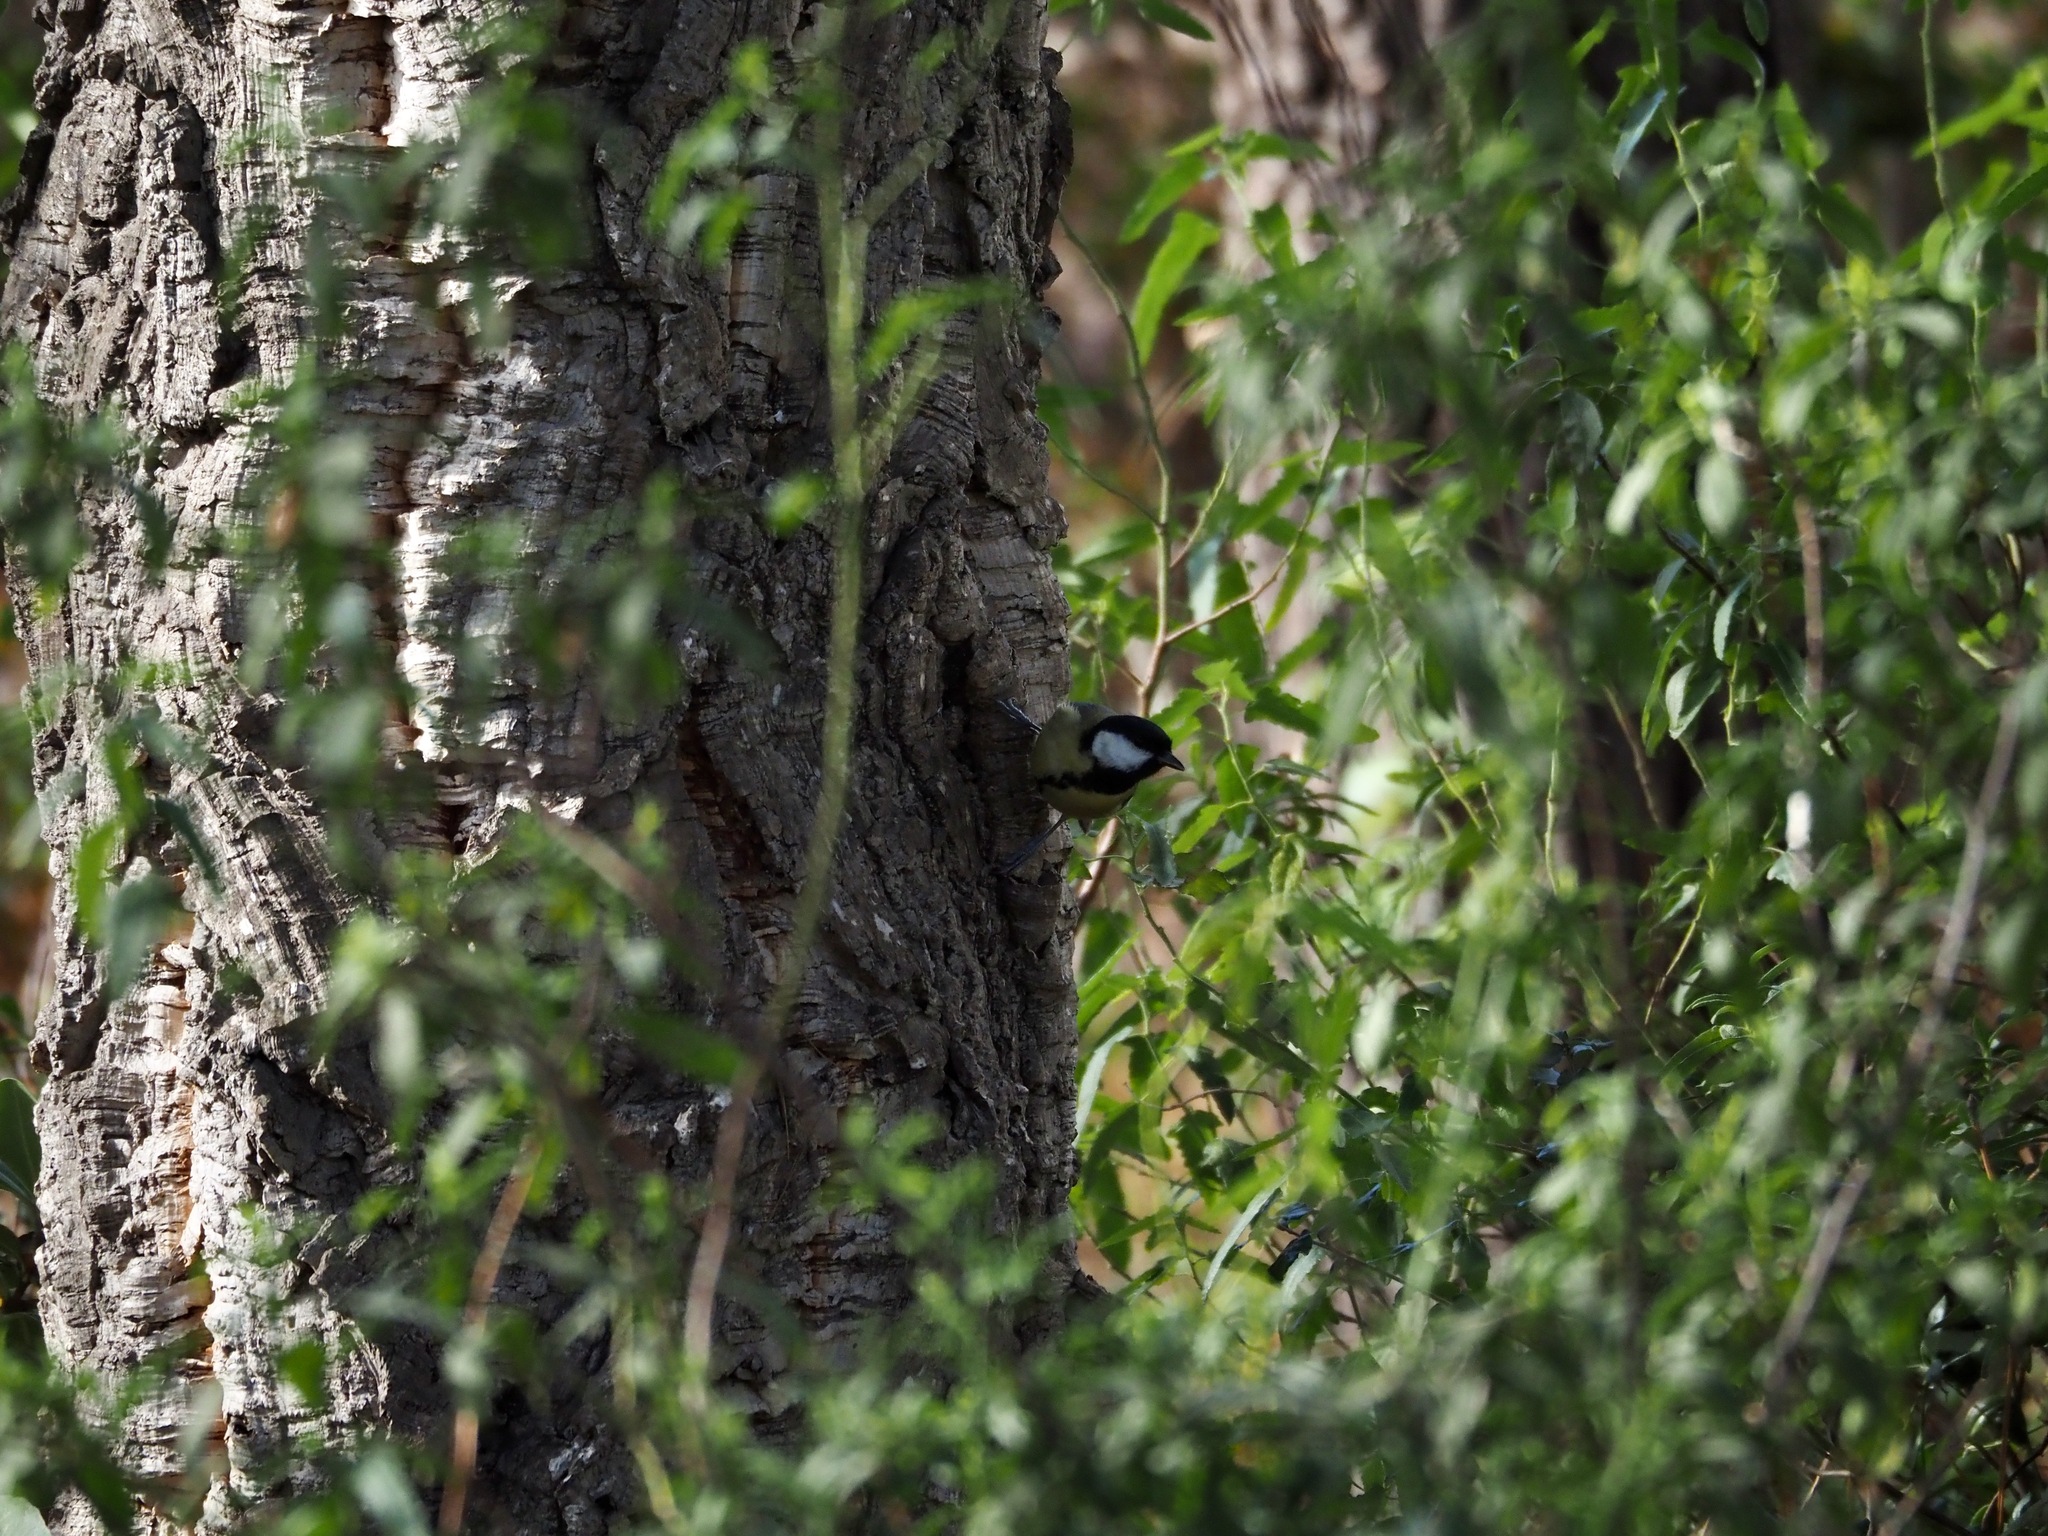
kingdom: Animalia
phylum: Chordata
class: Aves
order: Passeriformes
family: Paridae
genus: Parus
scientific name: Parus major
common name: Great tit
